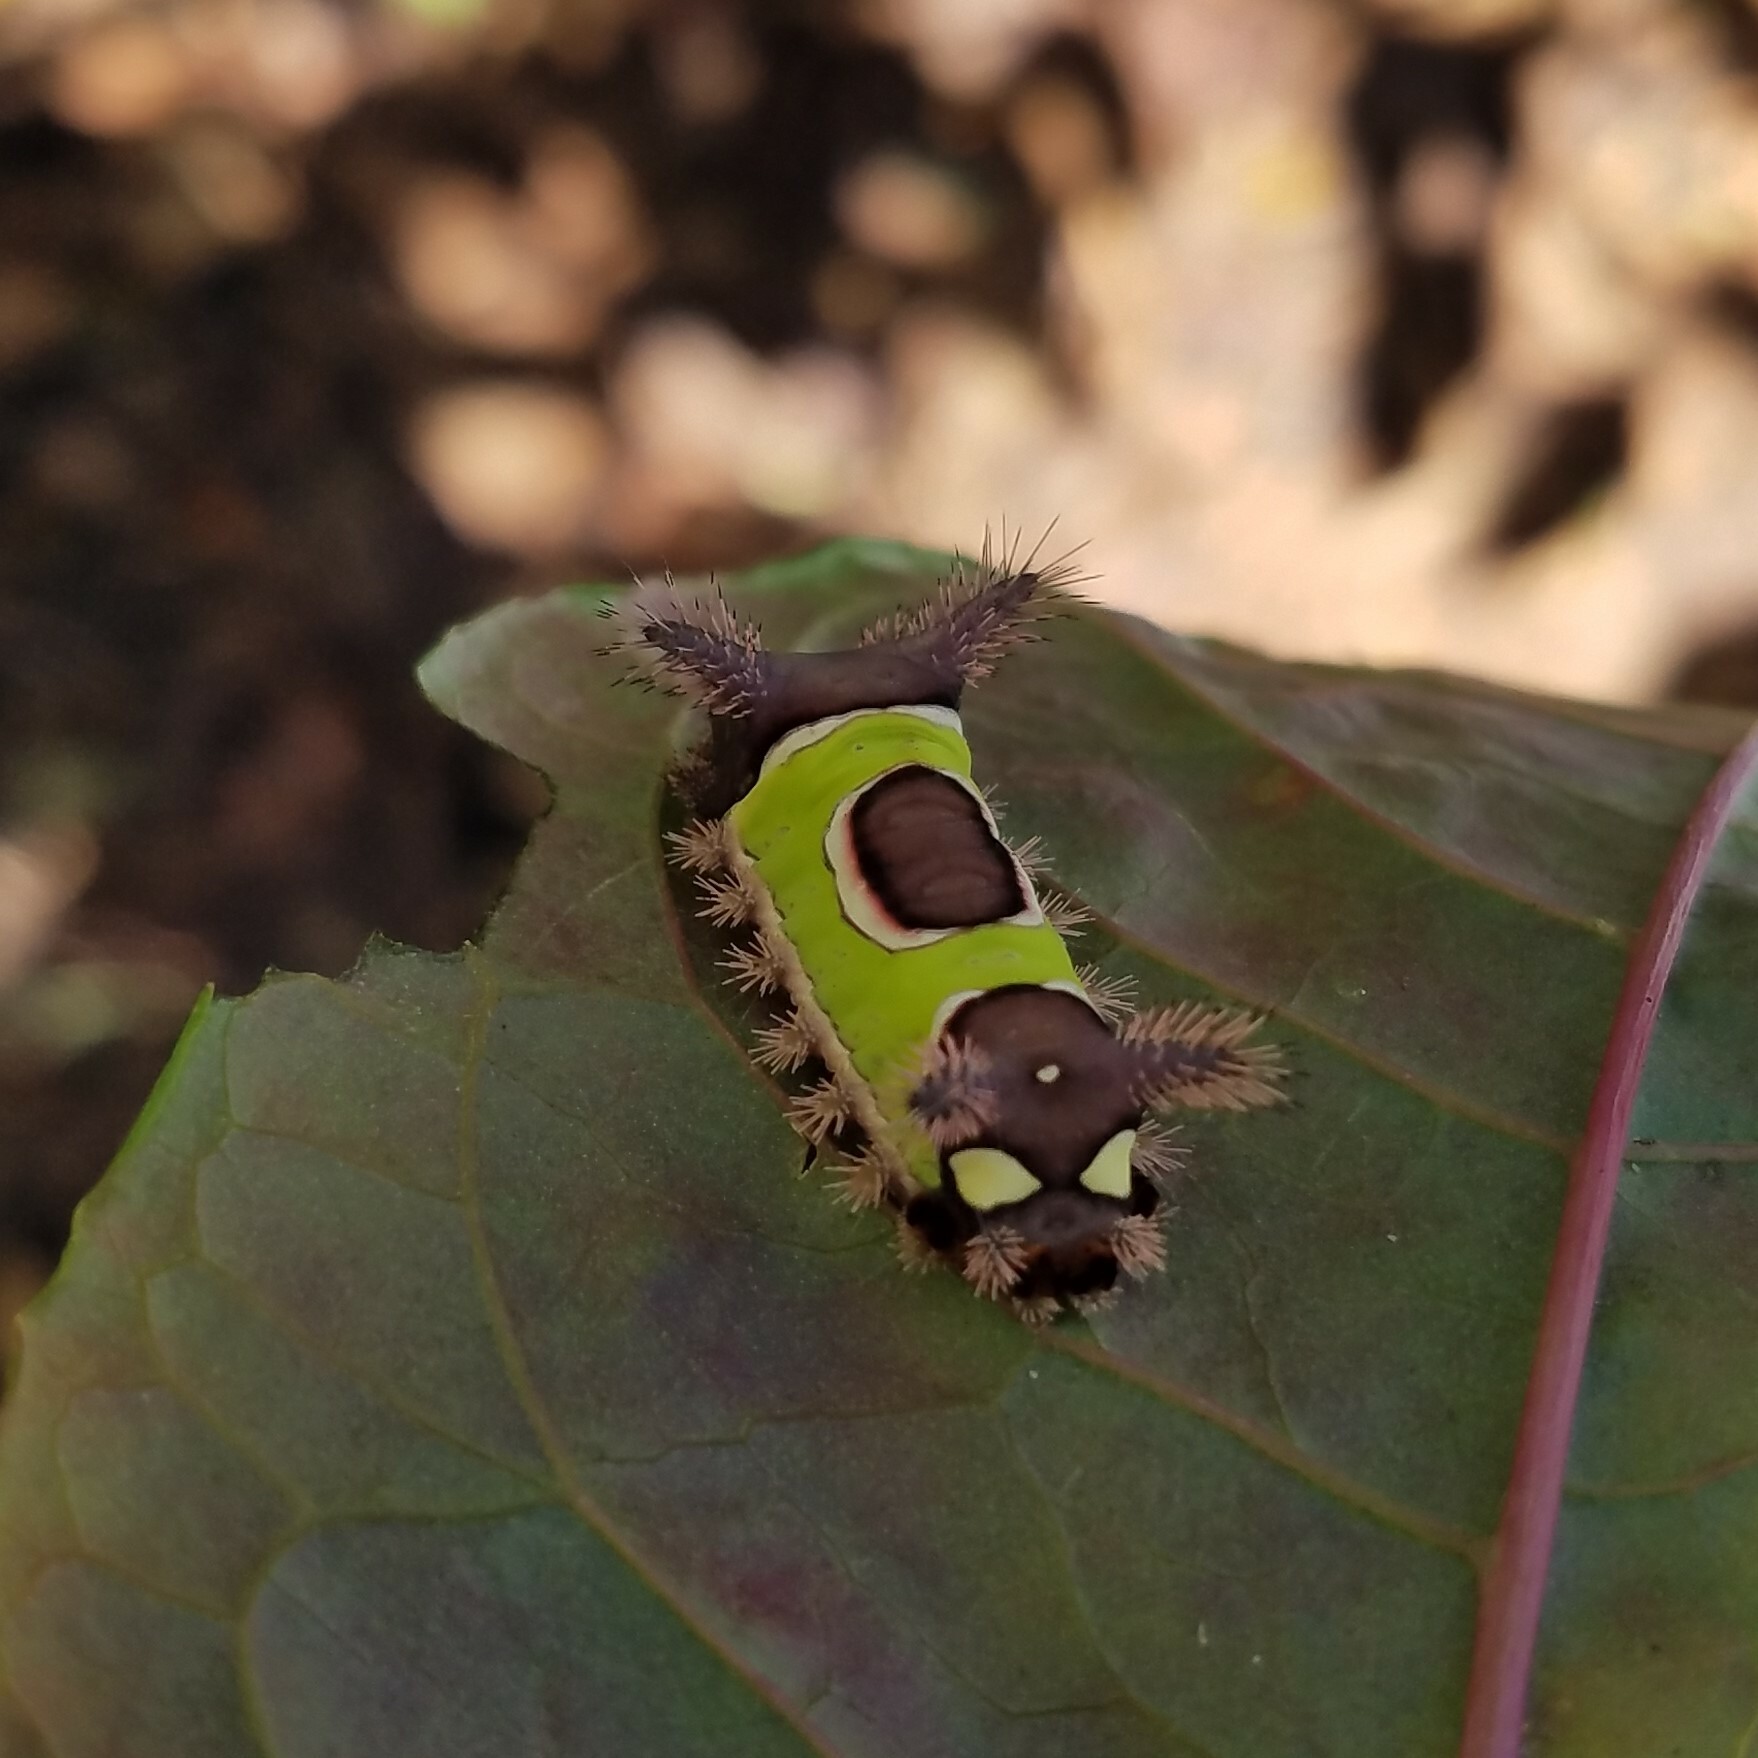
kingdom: Animalia
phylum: Arthropoda
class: Insecta
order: Lepidoptera
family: Limacodidae
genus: Acharia
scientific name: Acharia stimulea
